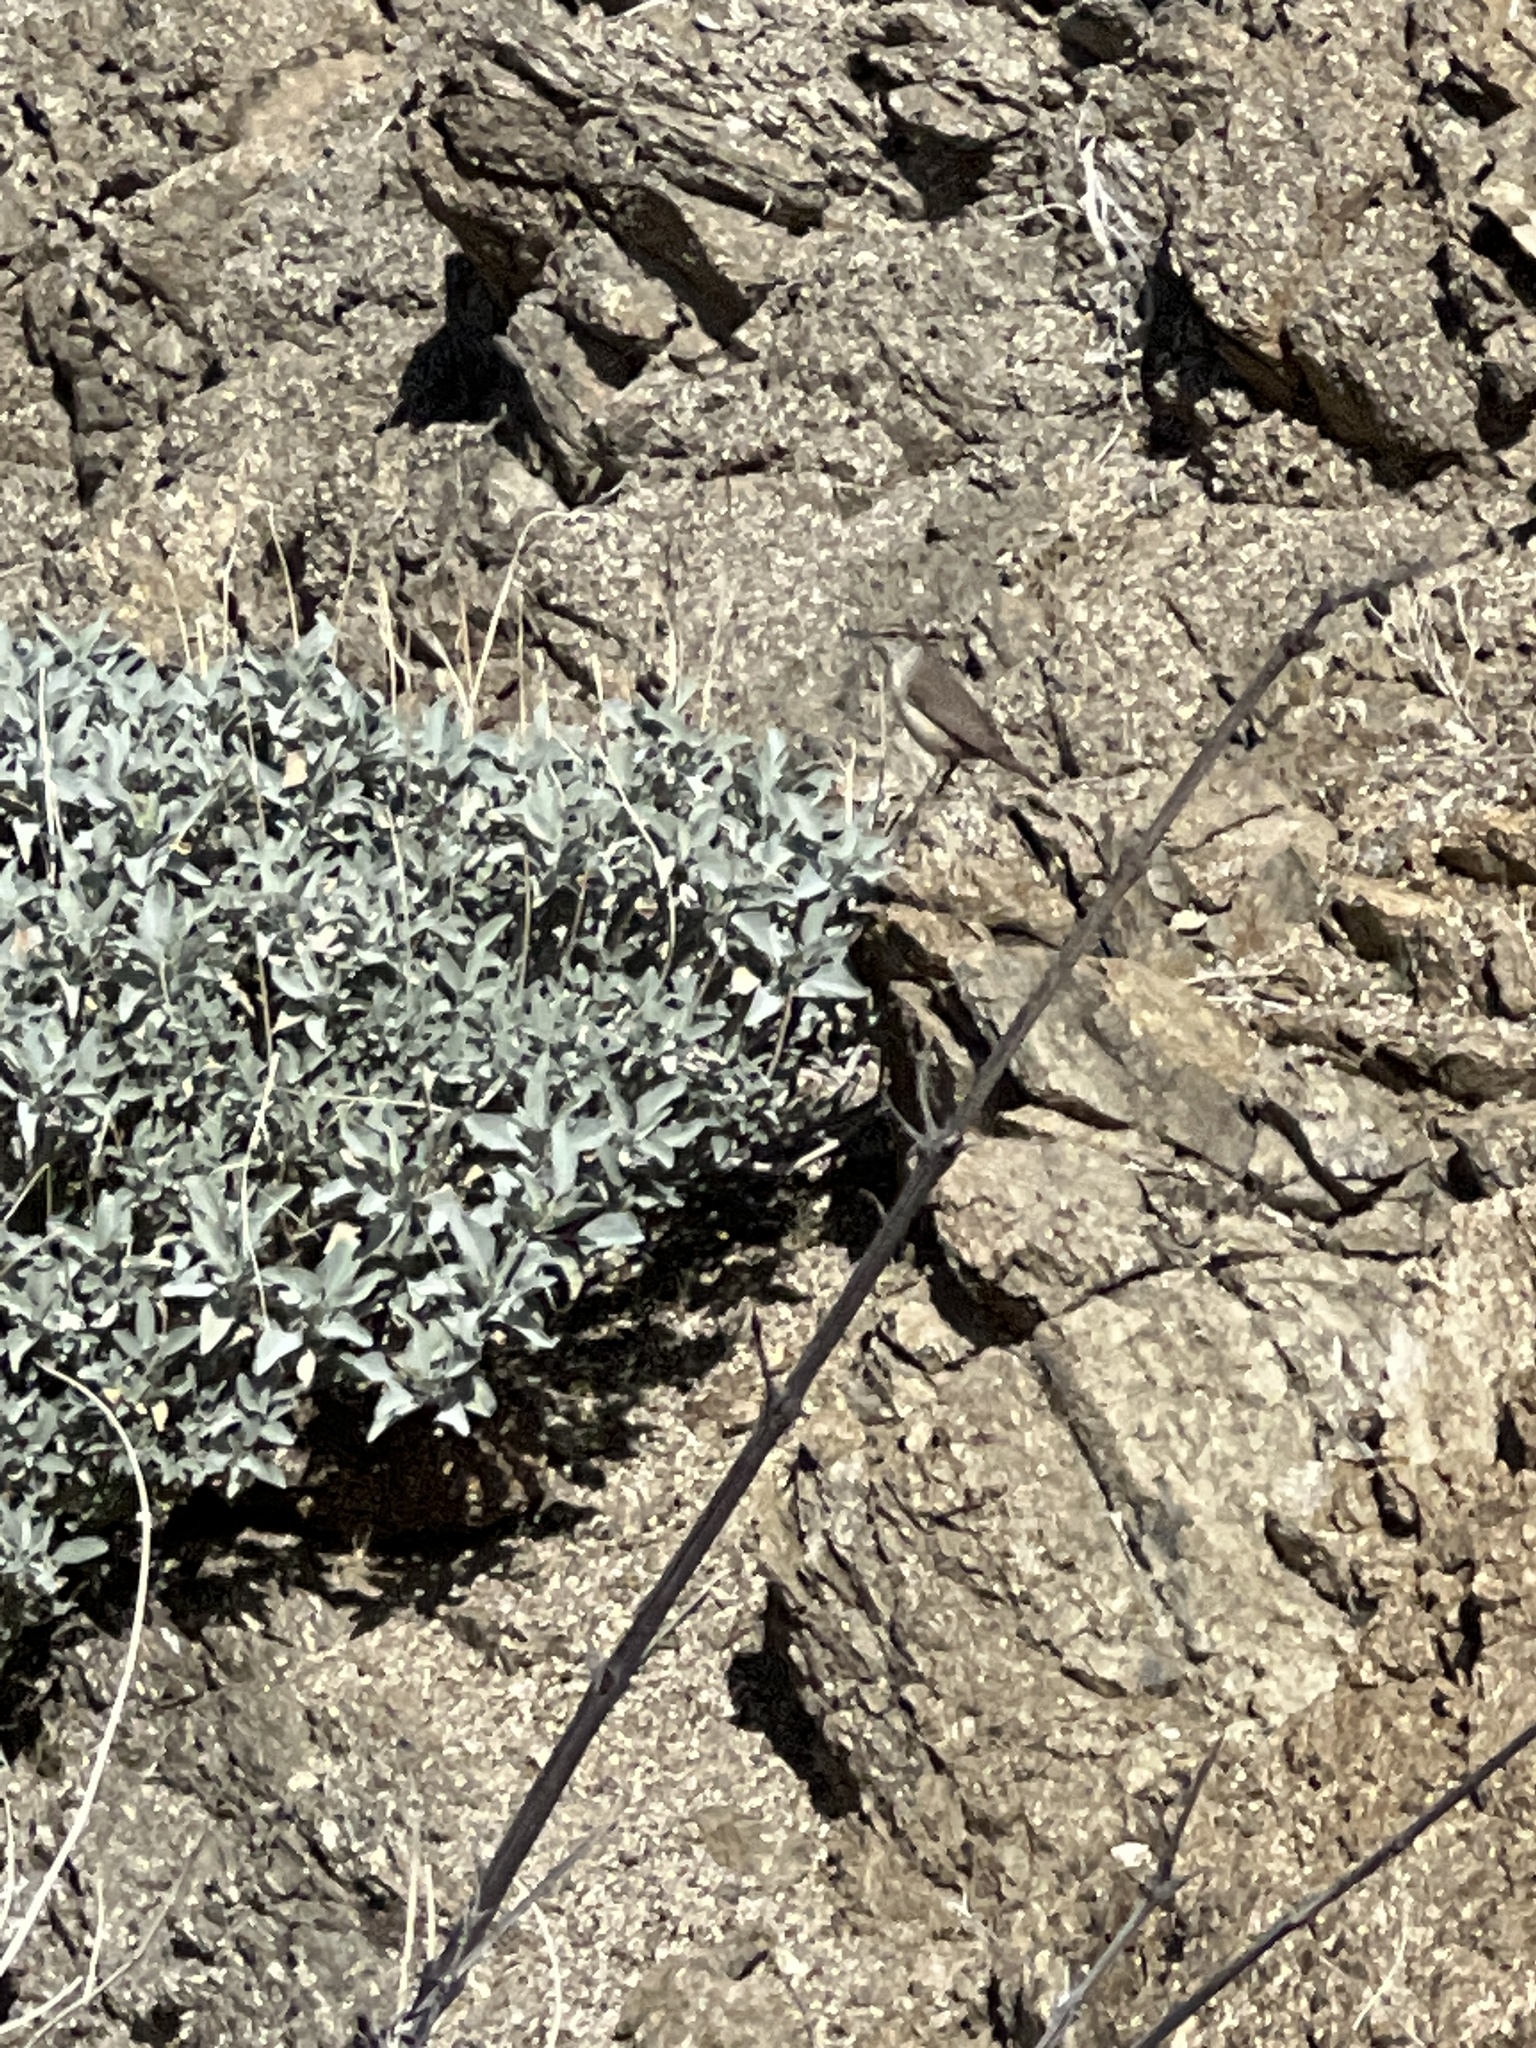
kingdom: Animalia
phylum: Chordata
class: Aves
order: Passeriformes
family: Troglodytidae
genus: Salpinctes
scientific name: Salpinctes obsoletus
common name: Rock wren
